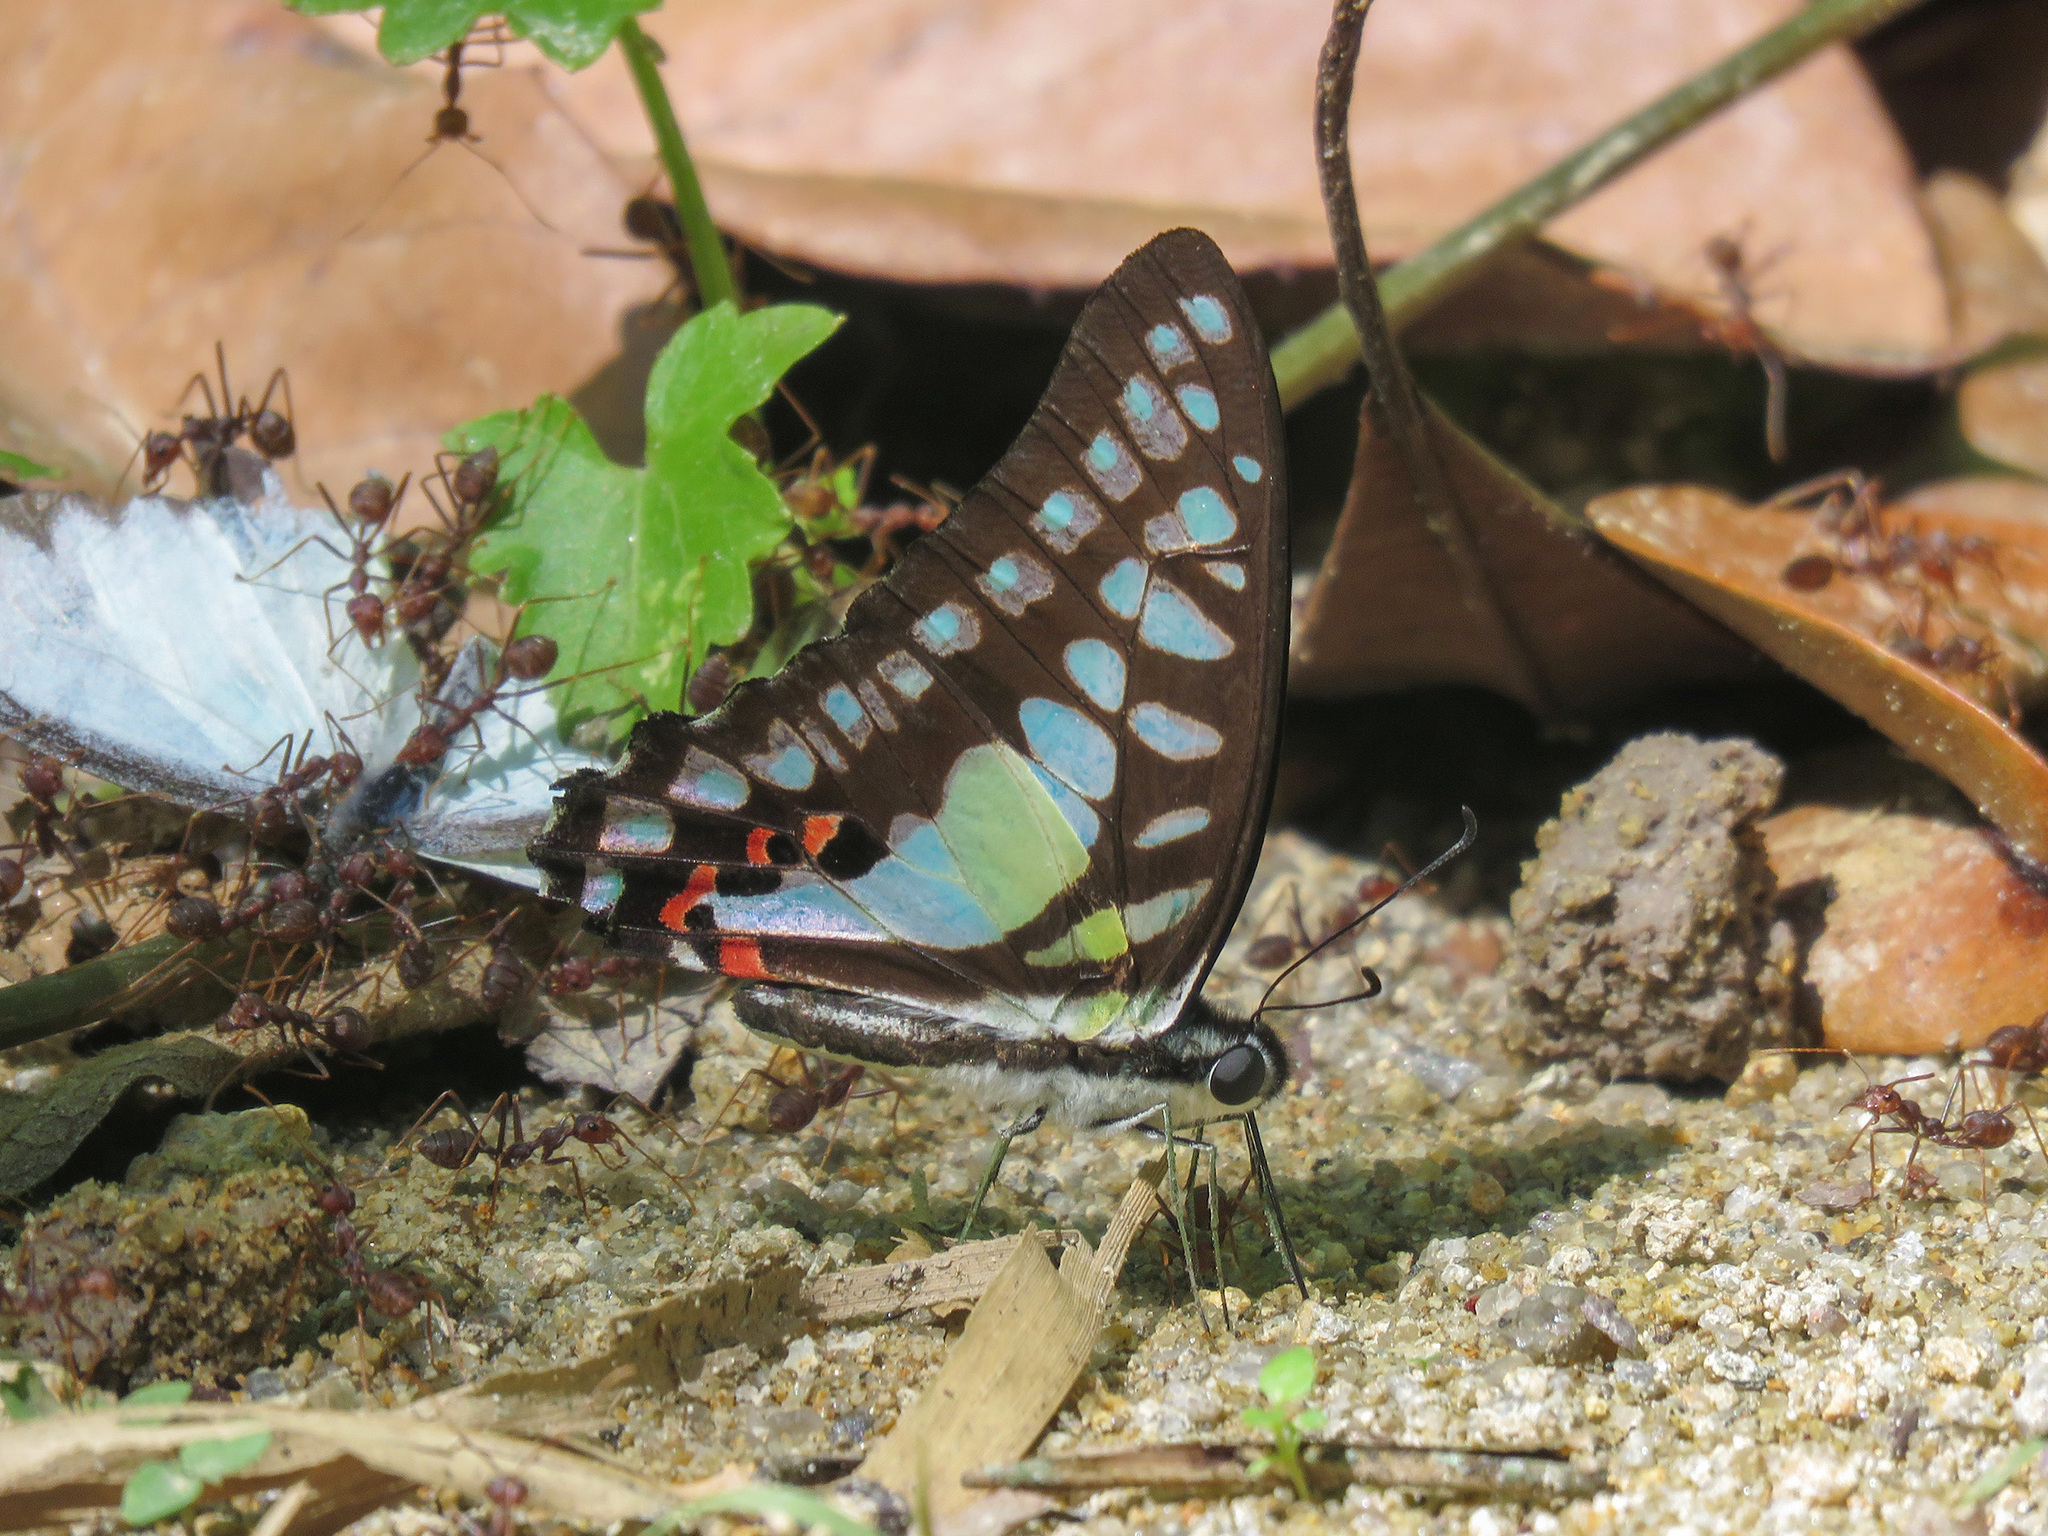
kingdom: Animalia
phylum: Arthropoda
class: Insecta
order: Lepidoptera
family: Papilionidae
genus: Graphium
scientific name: Graphium evemon
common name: Lesser jay
